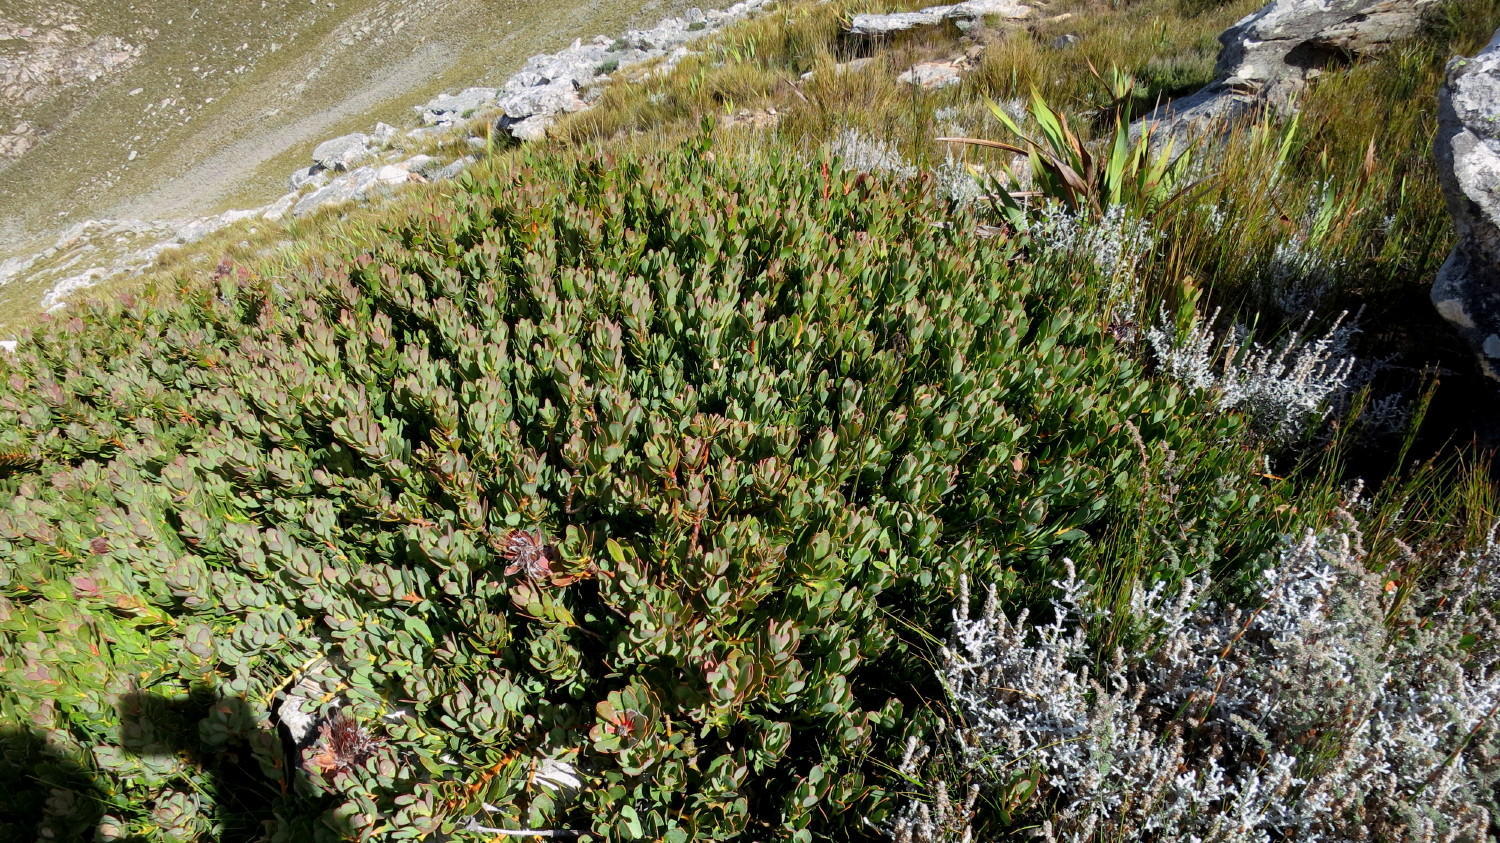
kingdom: Plantae
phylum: Tracheophyta
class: Magnoliopsida
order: Proteales
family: Proteaceae
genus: Protea
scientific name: Protea venusta
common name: Cascade sugarbush
